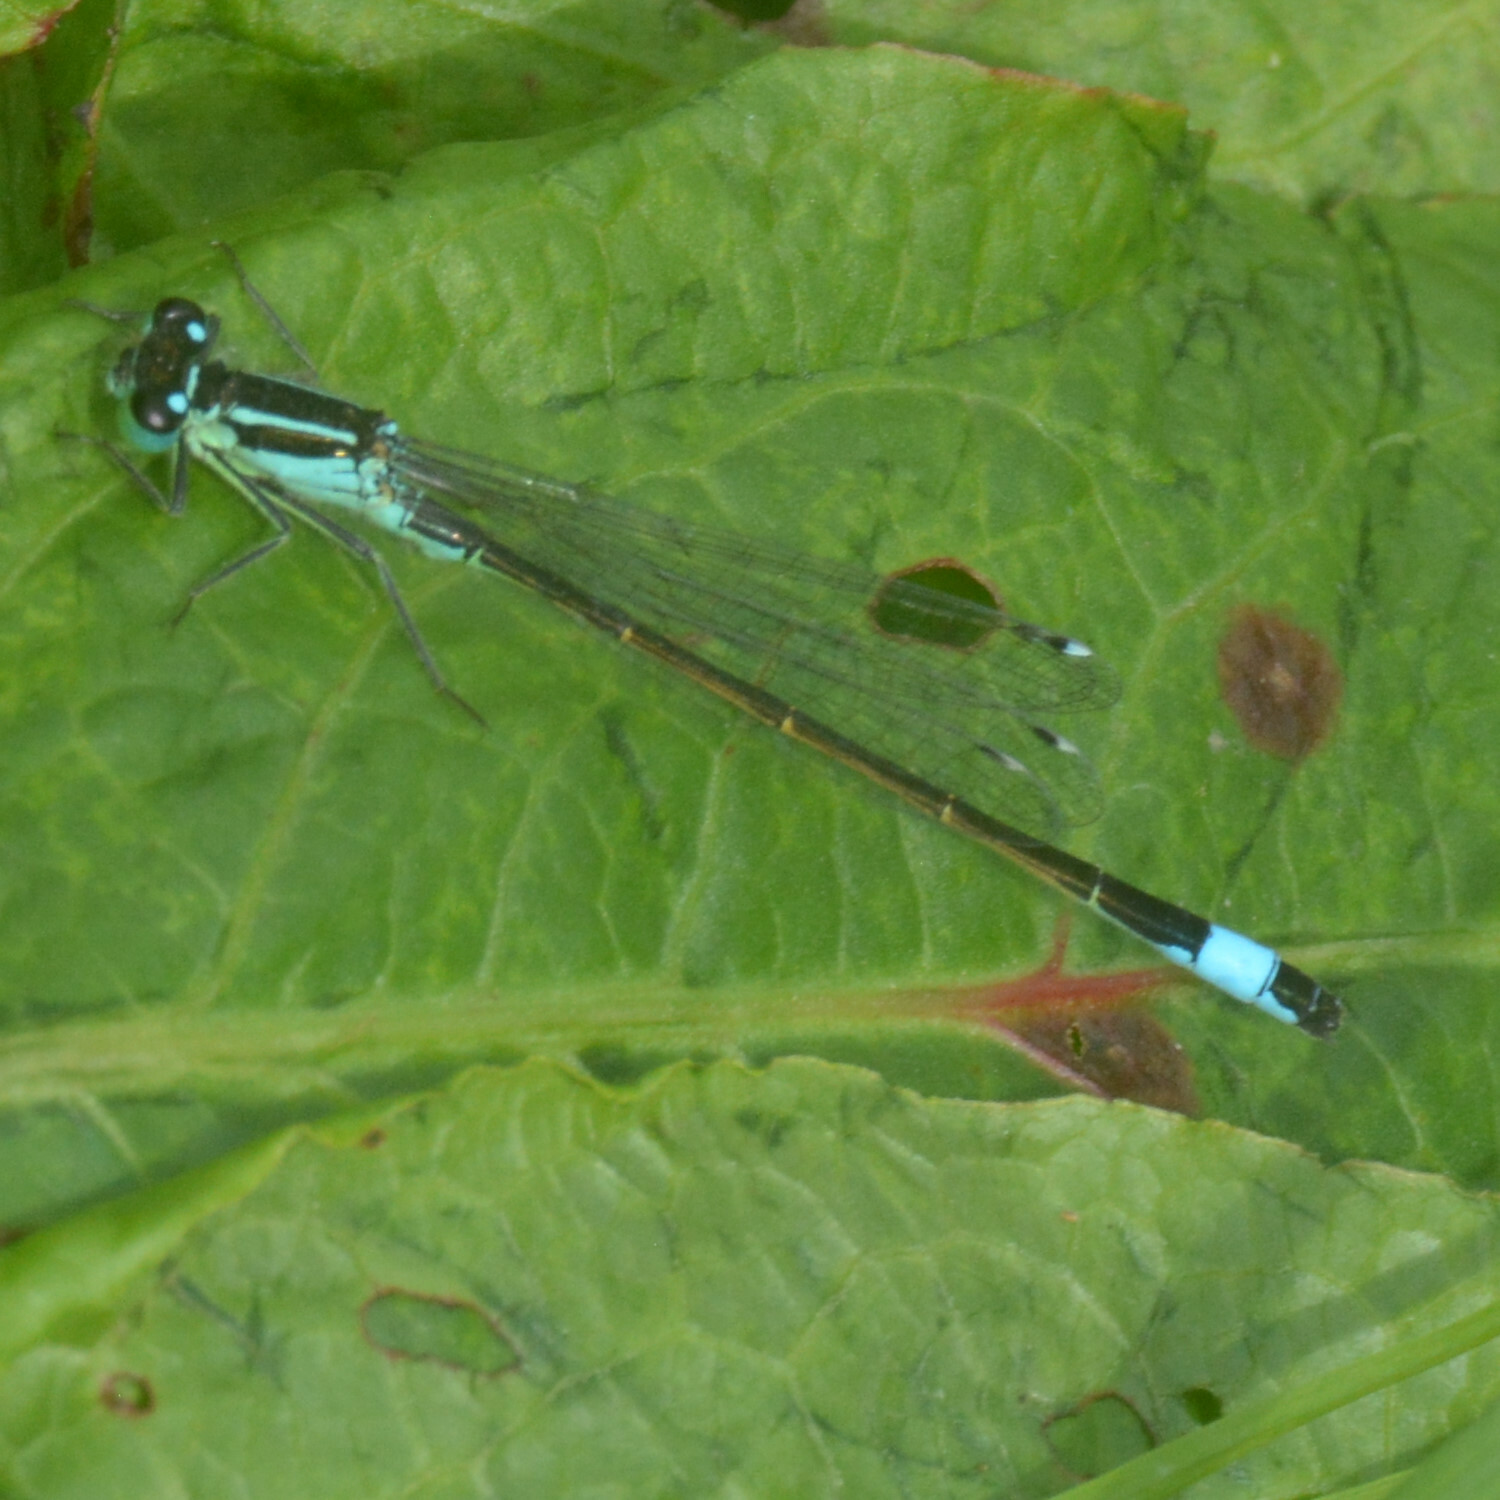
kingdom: Animalia
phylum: Arthropoda
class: Insecta
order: Odonata
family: Coenagrionidae
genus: Ischnura
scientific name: Ischnura elegans
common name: Blue-tailed damselfly
